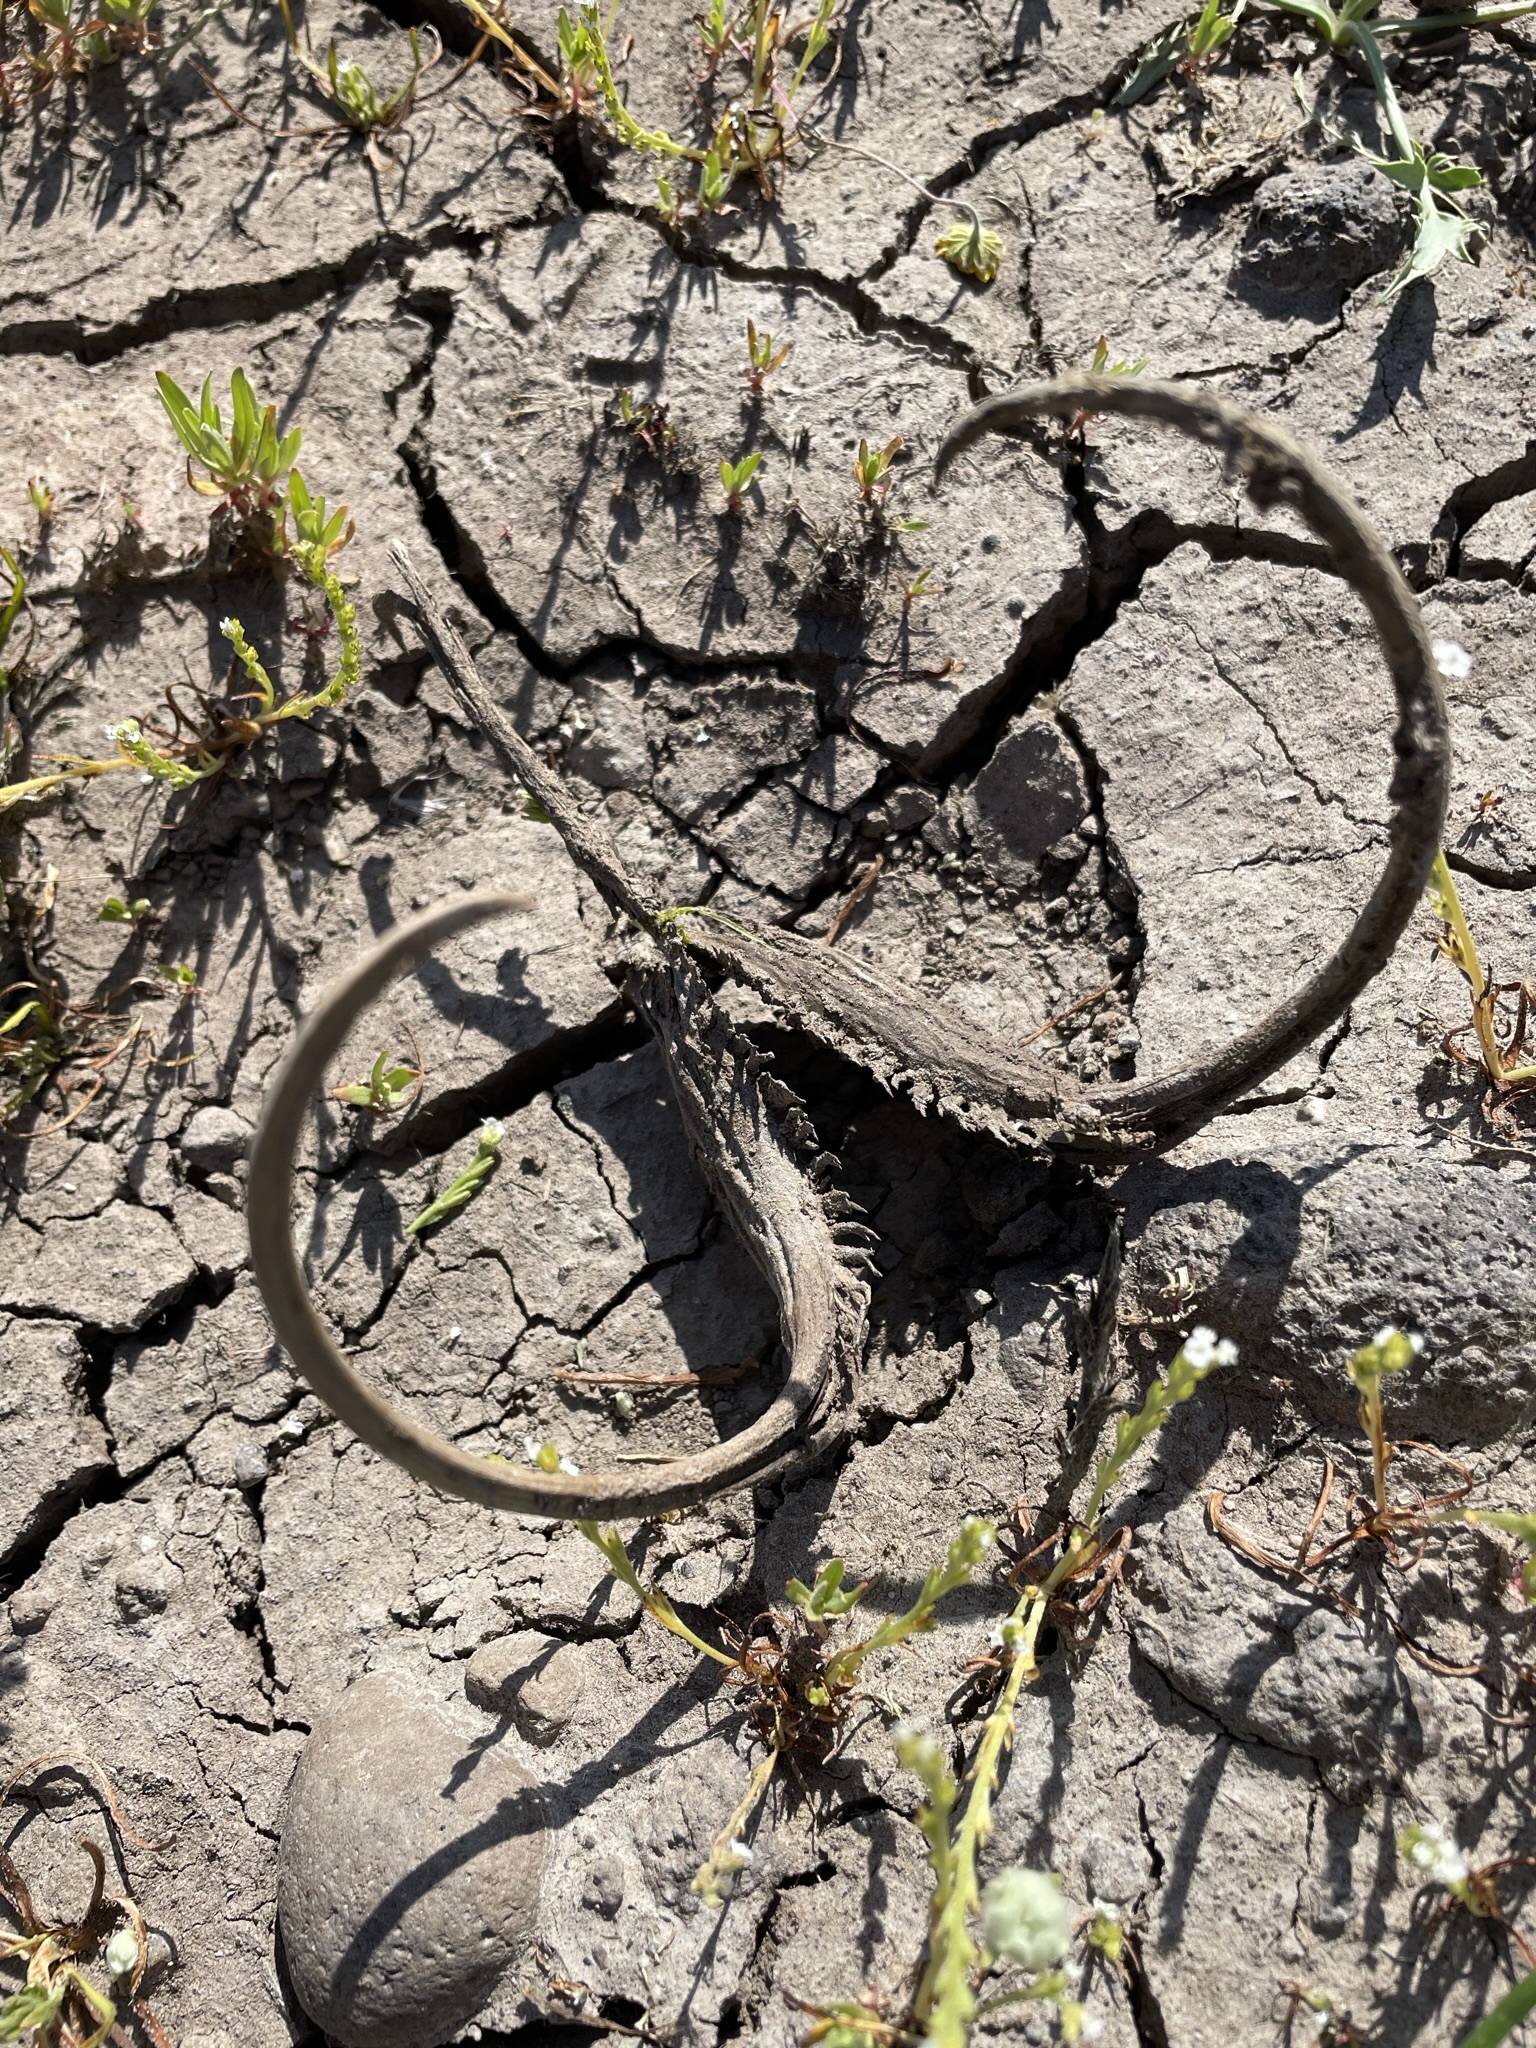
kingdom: Plantae
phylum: Tracheophyta
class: Magnoliopsida
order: Lamiales
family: Martyniaceae
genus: Proboscidea
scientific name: Proboscidea louisianica
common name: Elephant tusks
